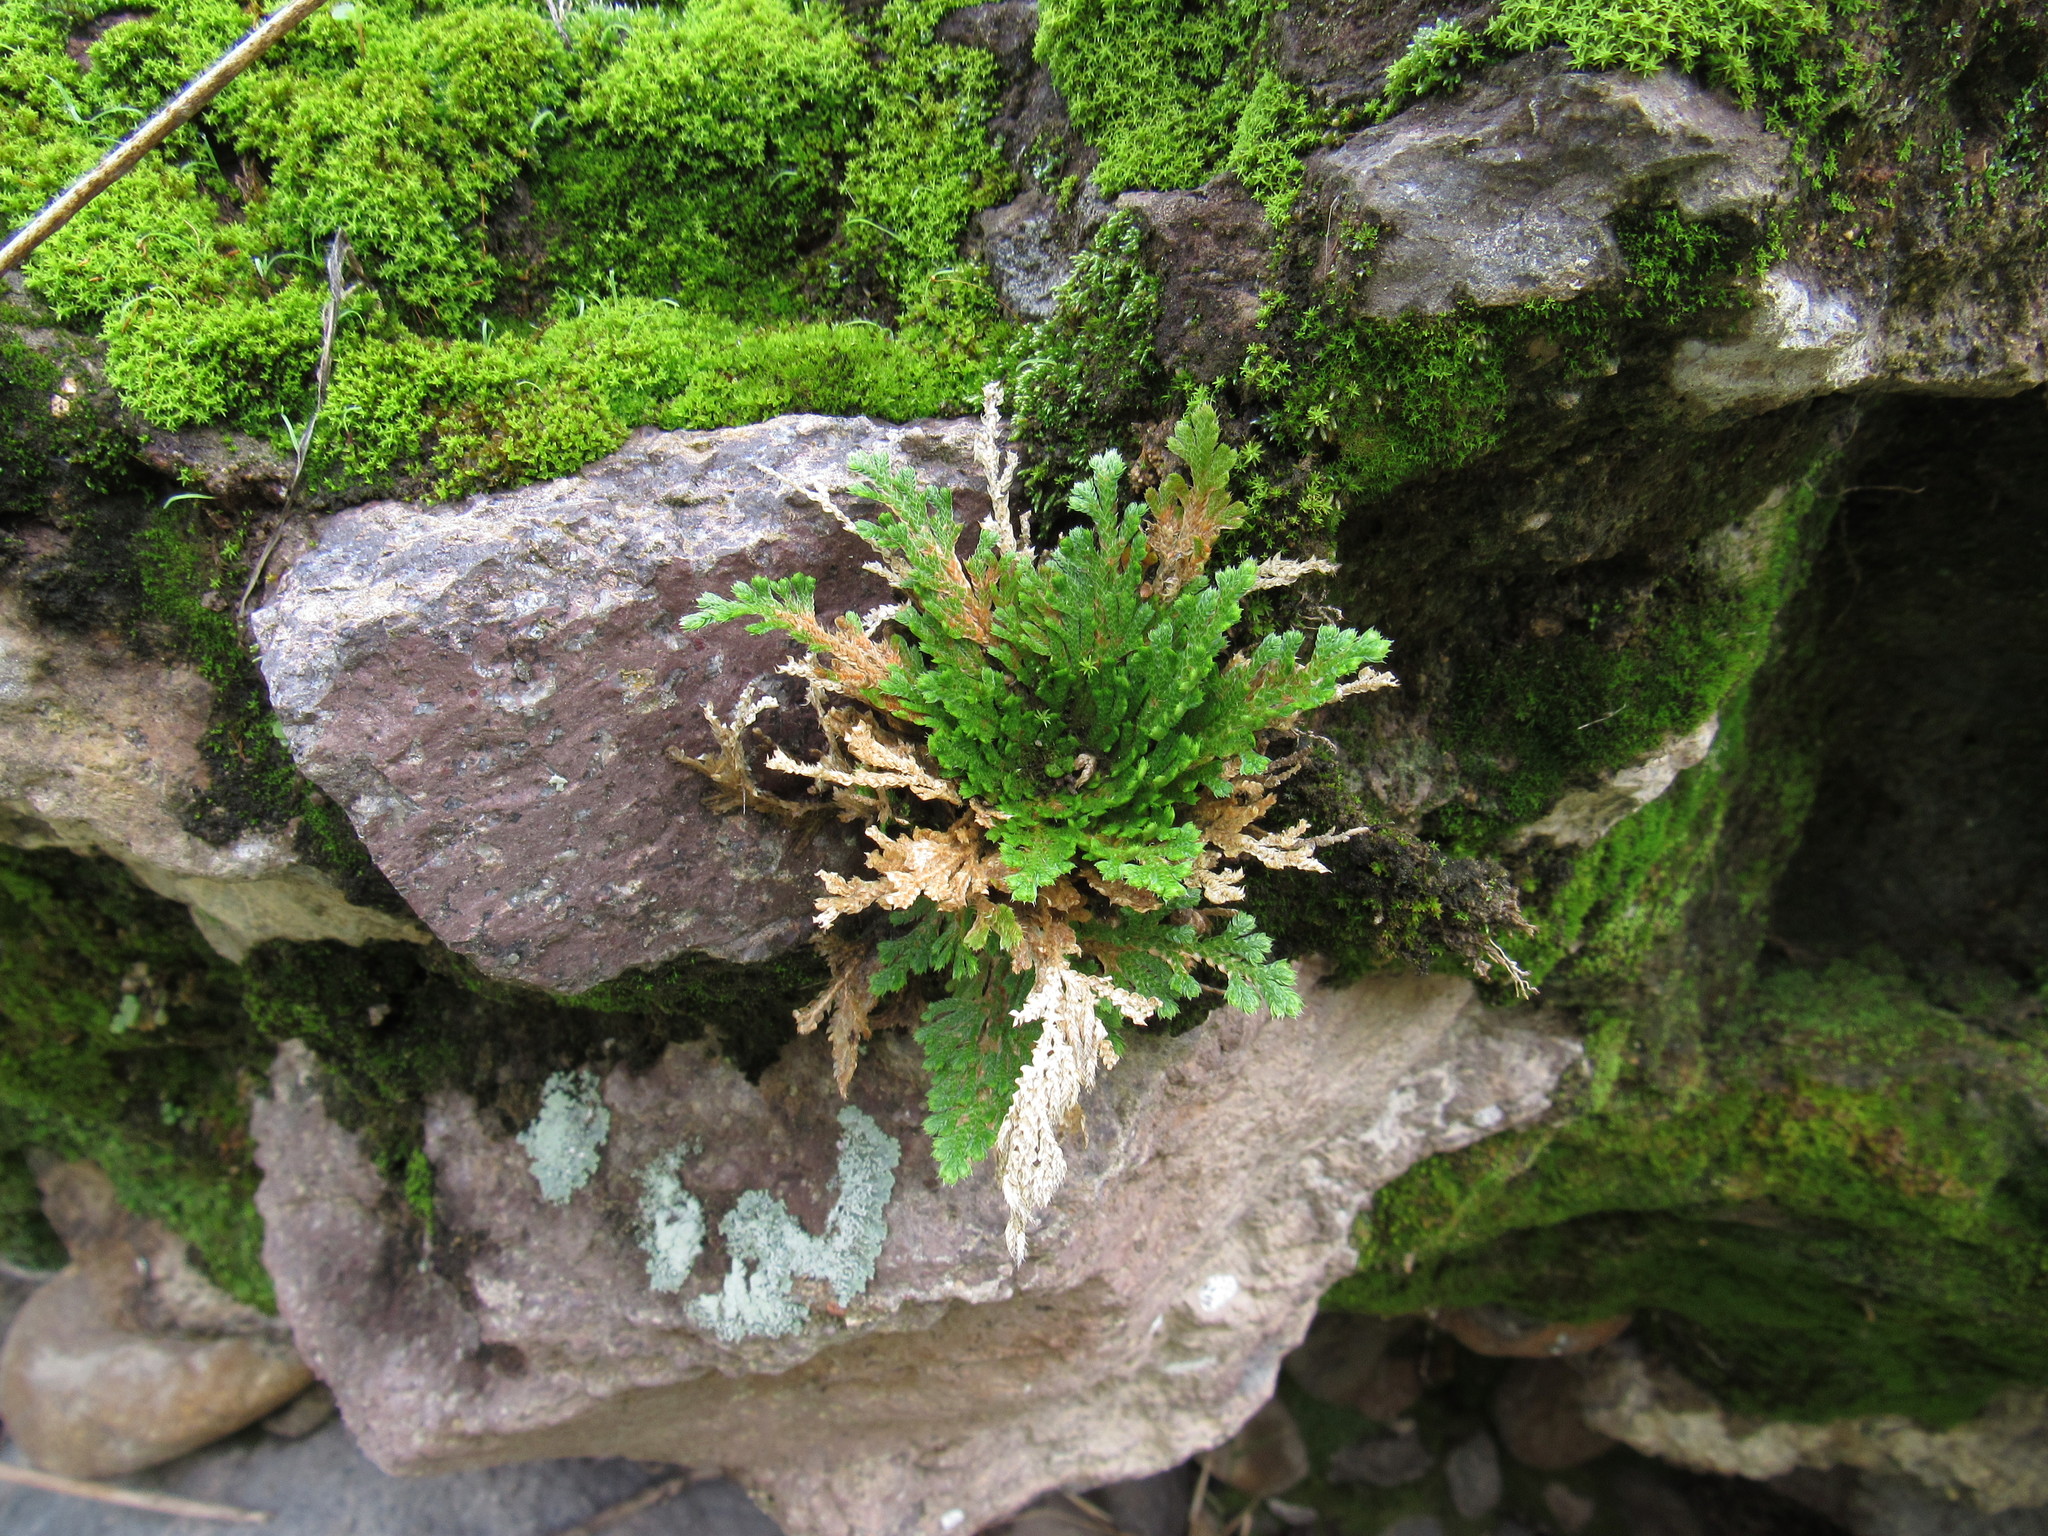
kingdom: Plantae
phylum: Tracheophyta
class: Lycopodiopsida
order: Selaginellales
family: Selaginellaceae
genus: Selaginella
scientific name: Selaginella lepidophylla
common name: Rose-of-jericho
